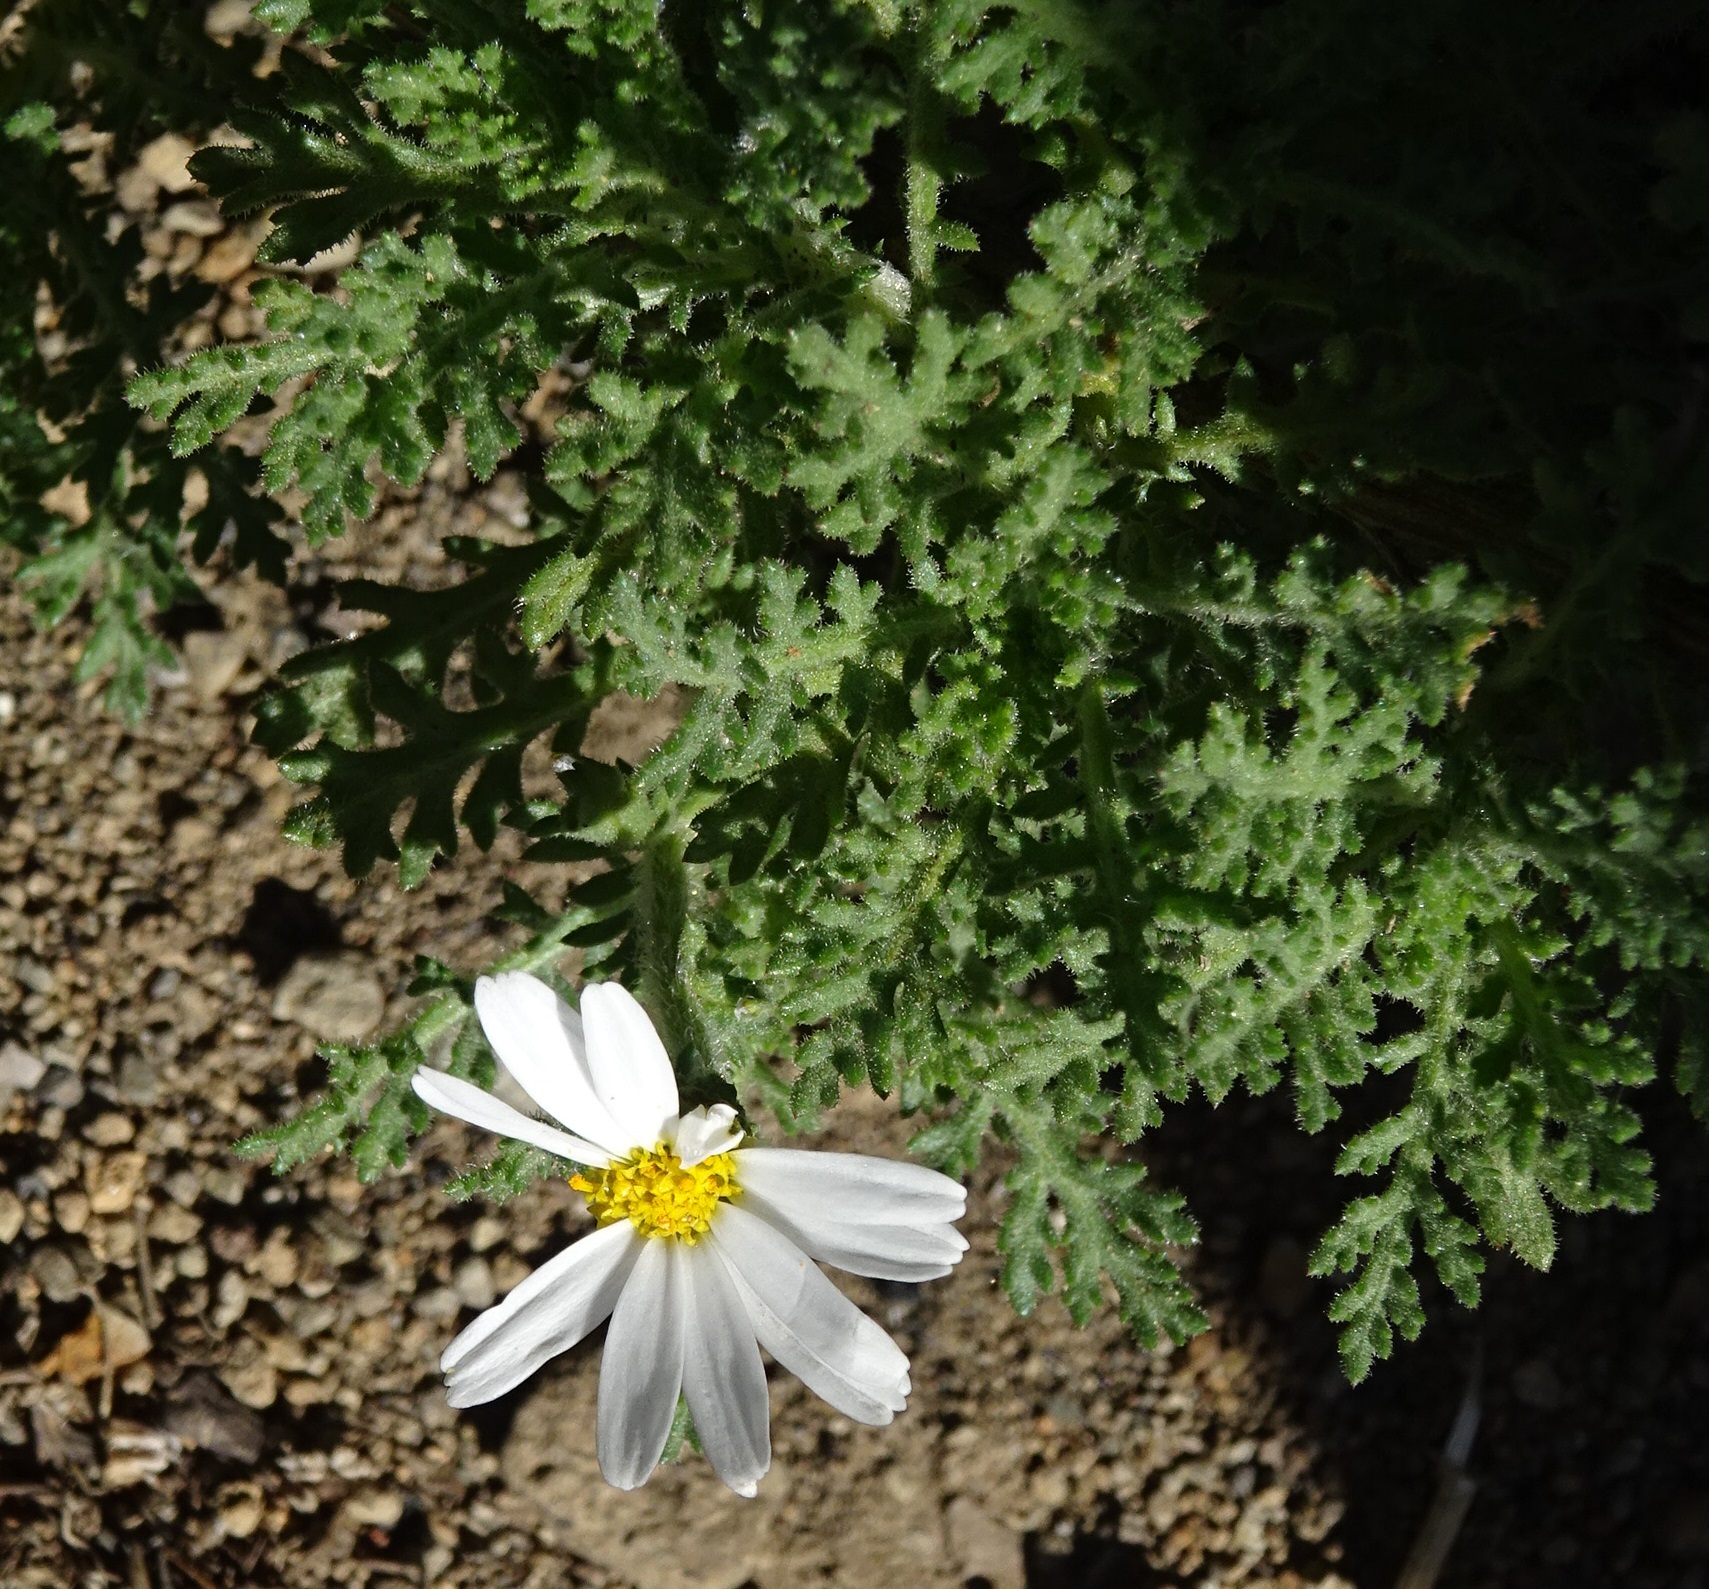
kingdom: Plantae
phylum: Tracheophyta
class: Magnoliopsida
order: Asterales
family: Asteraceae
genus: Argyranthemum
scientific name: Argyranthemum adauctum
